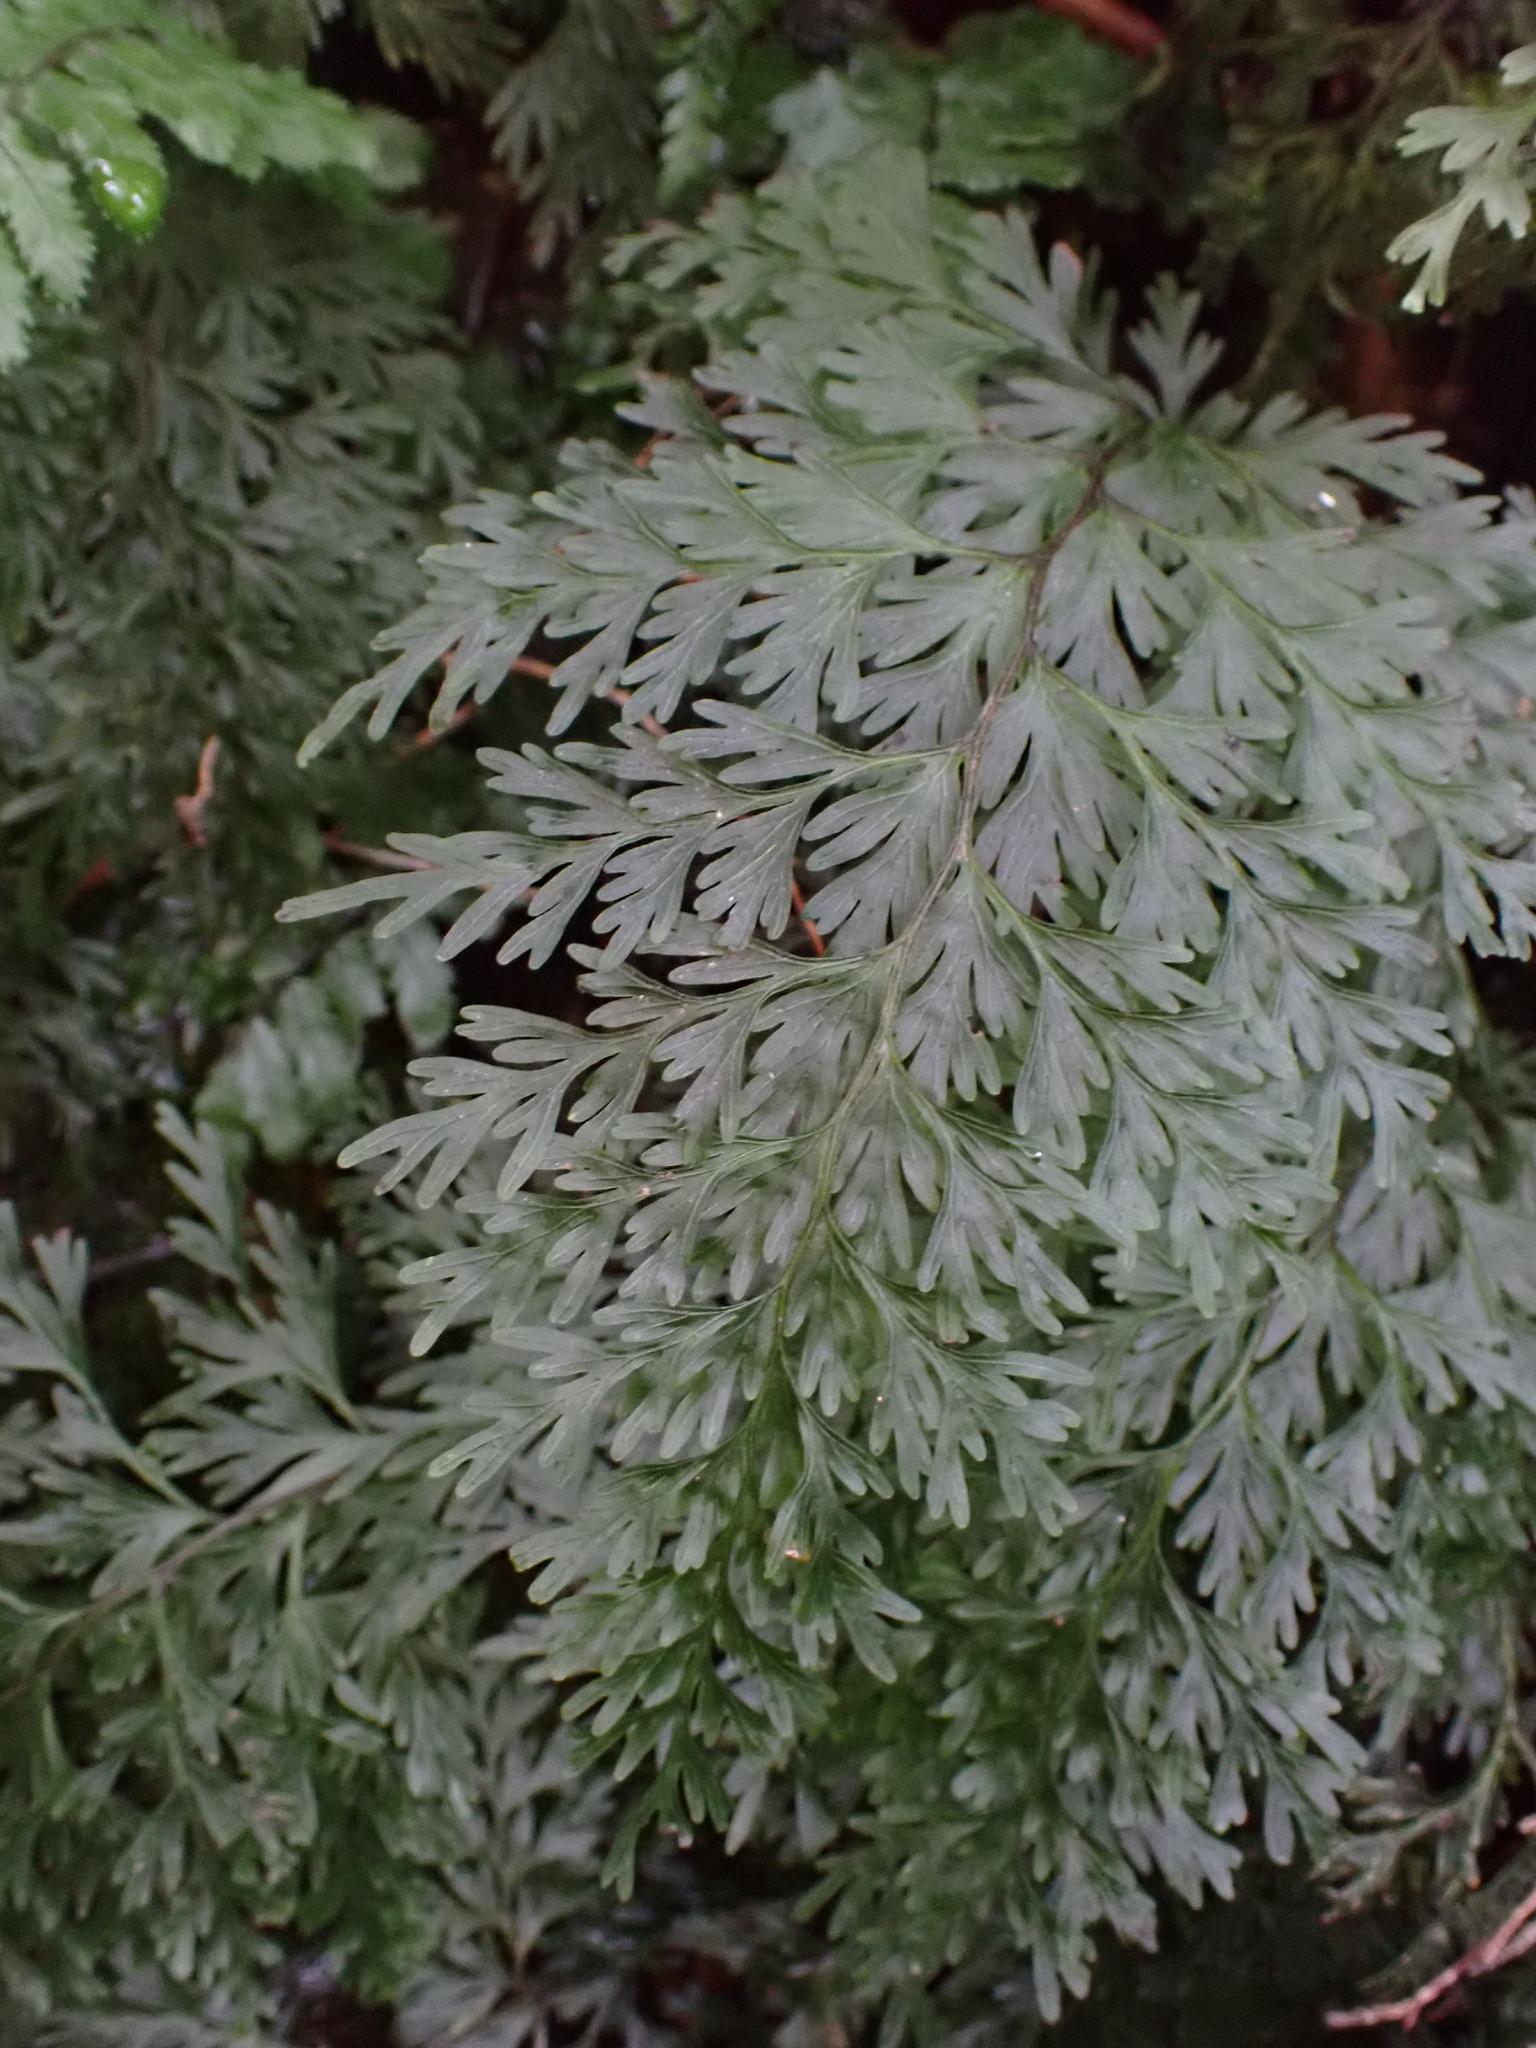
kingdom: Plantae
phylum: Tracheophyta
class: Polypodiopsida
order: Hymenophyllales
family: Hymenophyllaceae
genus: Hymenophyllum
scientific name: Hymenophyllum demissum
